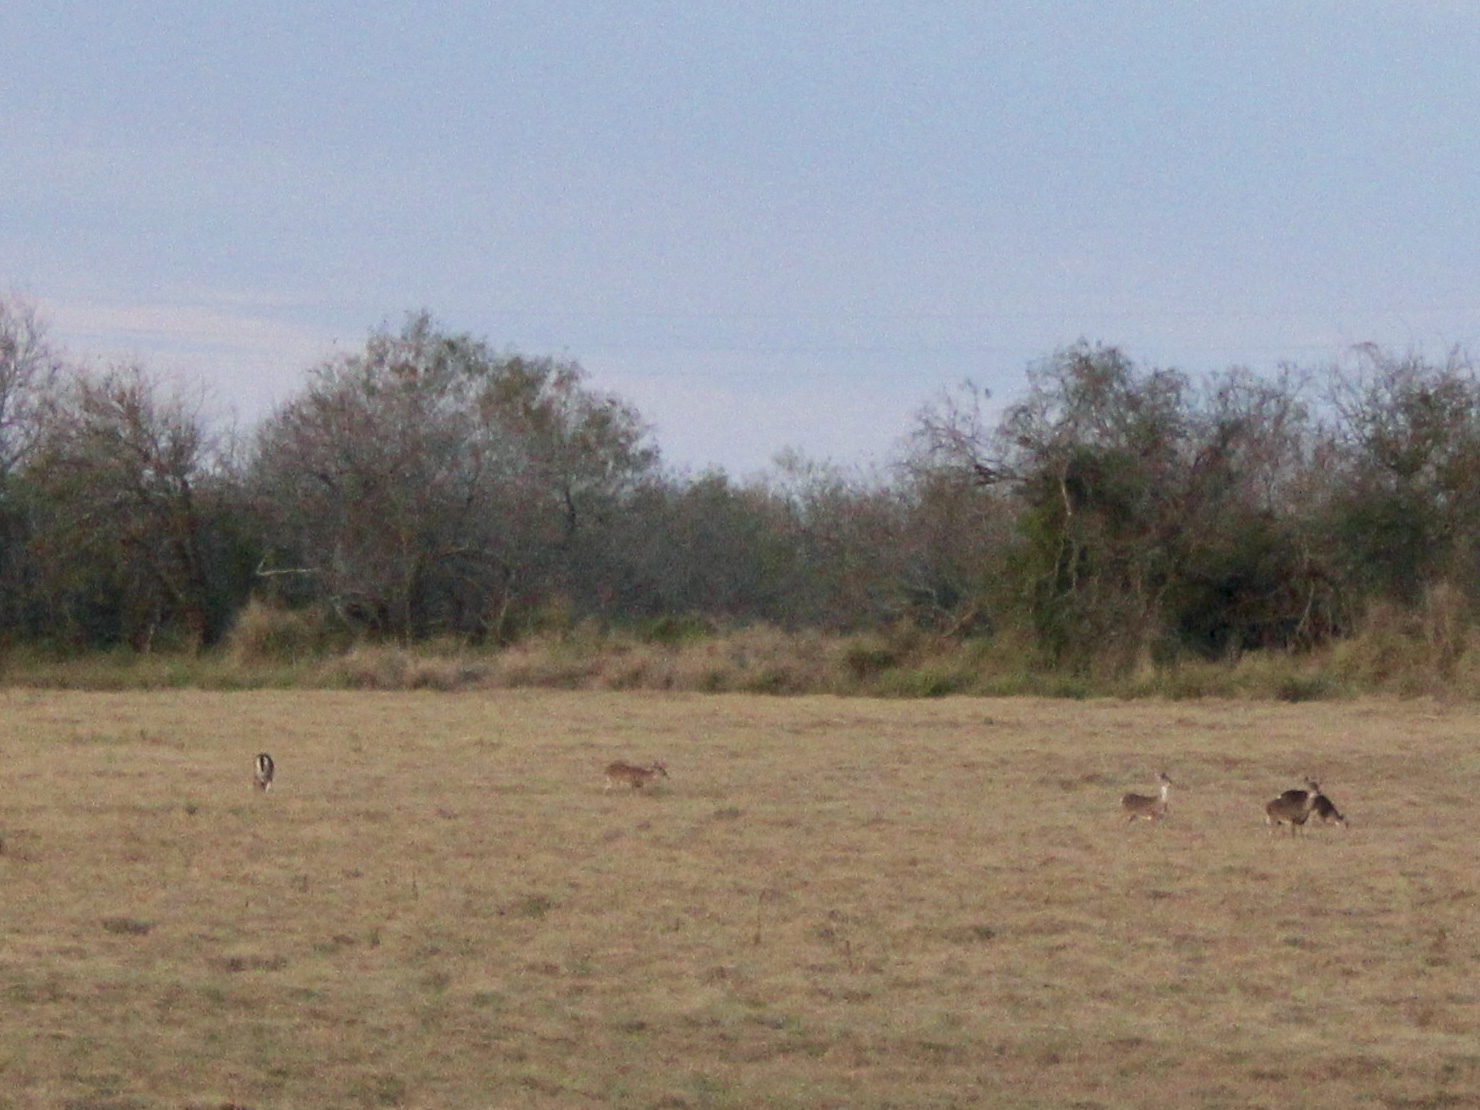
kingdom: Animalia
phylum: Chordata
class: Mammalia
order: Artiodactyla
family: Cervidae
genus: Odocoileus
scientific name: Odocoileus virginianus
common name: White-tailed deer
